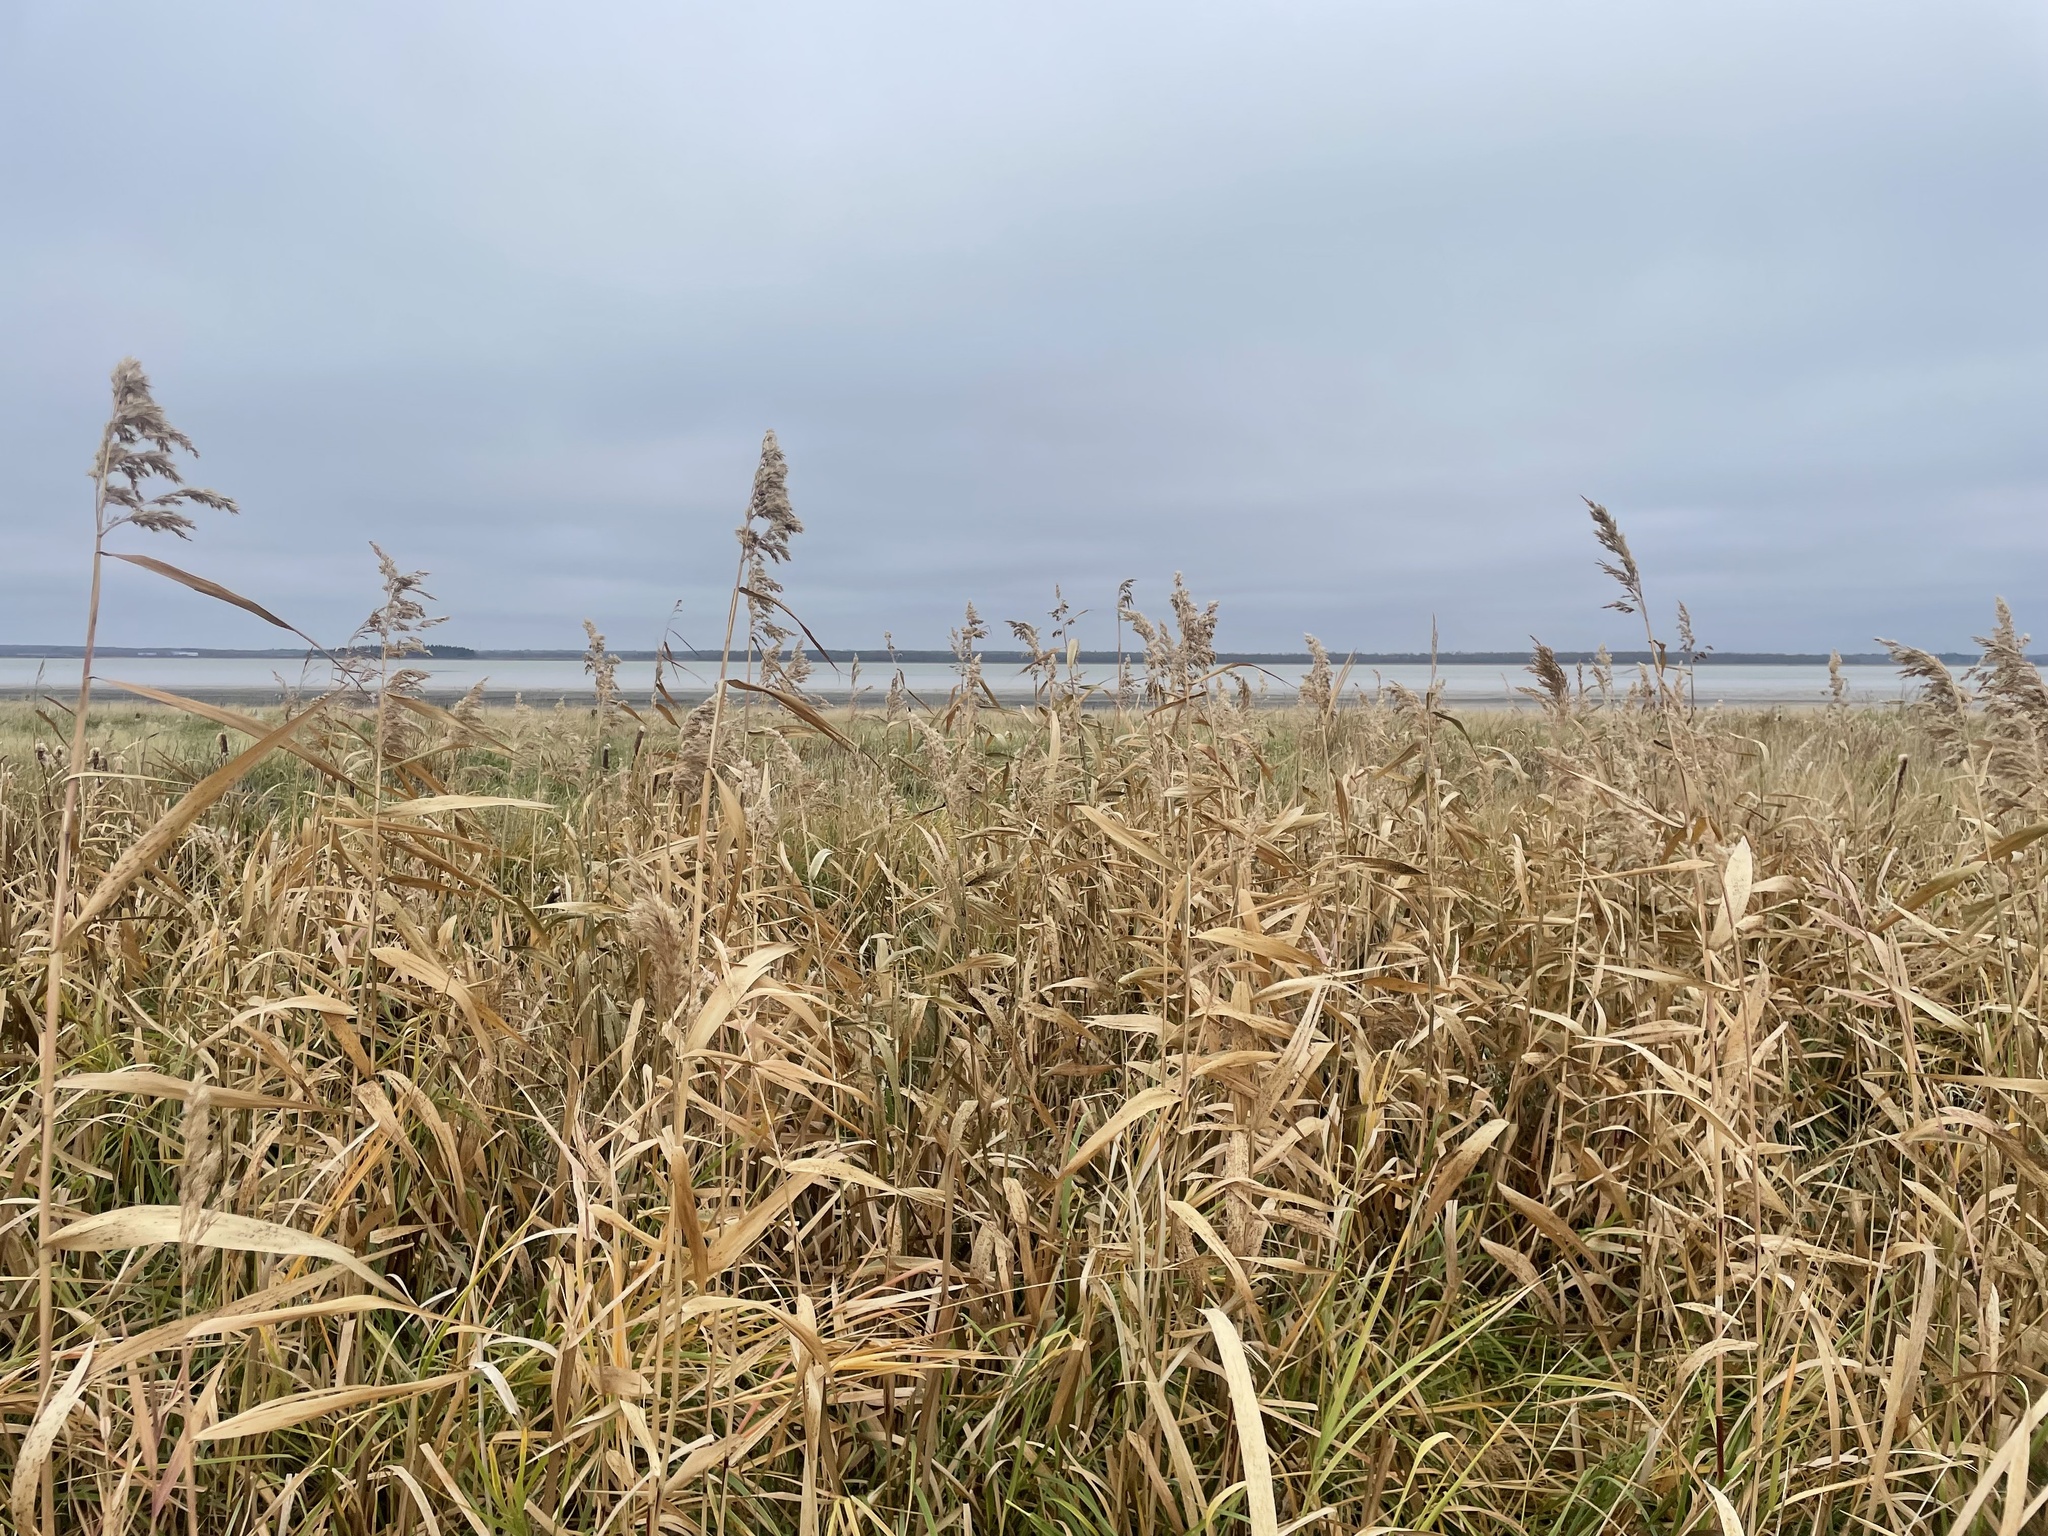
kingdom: Plantae
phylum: Tracheophyta
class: Liliopsida
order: Poales
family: Poaceae
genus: Phragmites
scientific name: Phragmites australis
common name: Common reed
